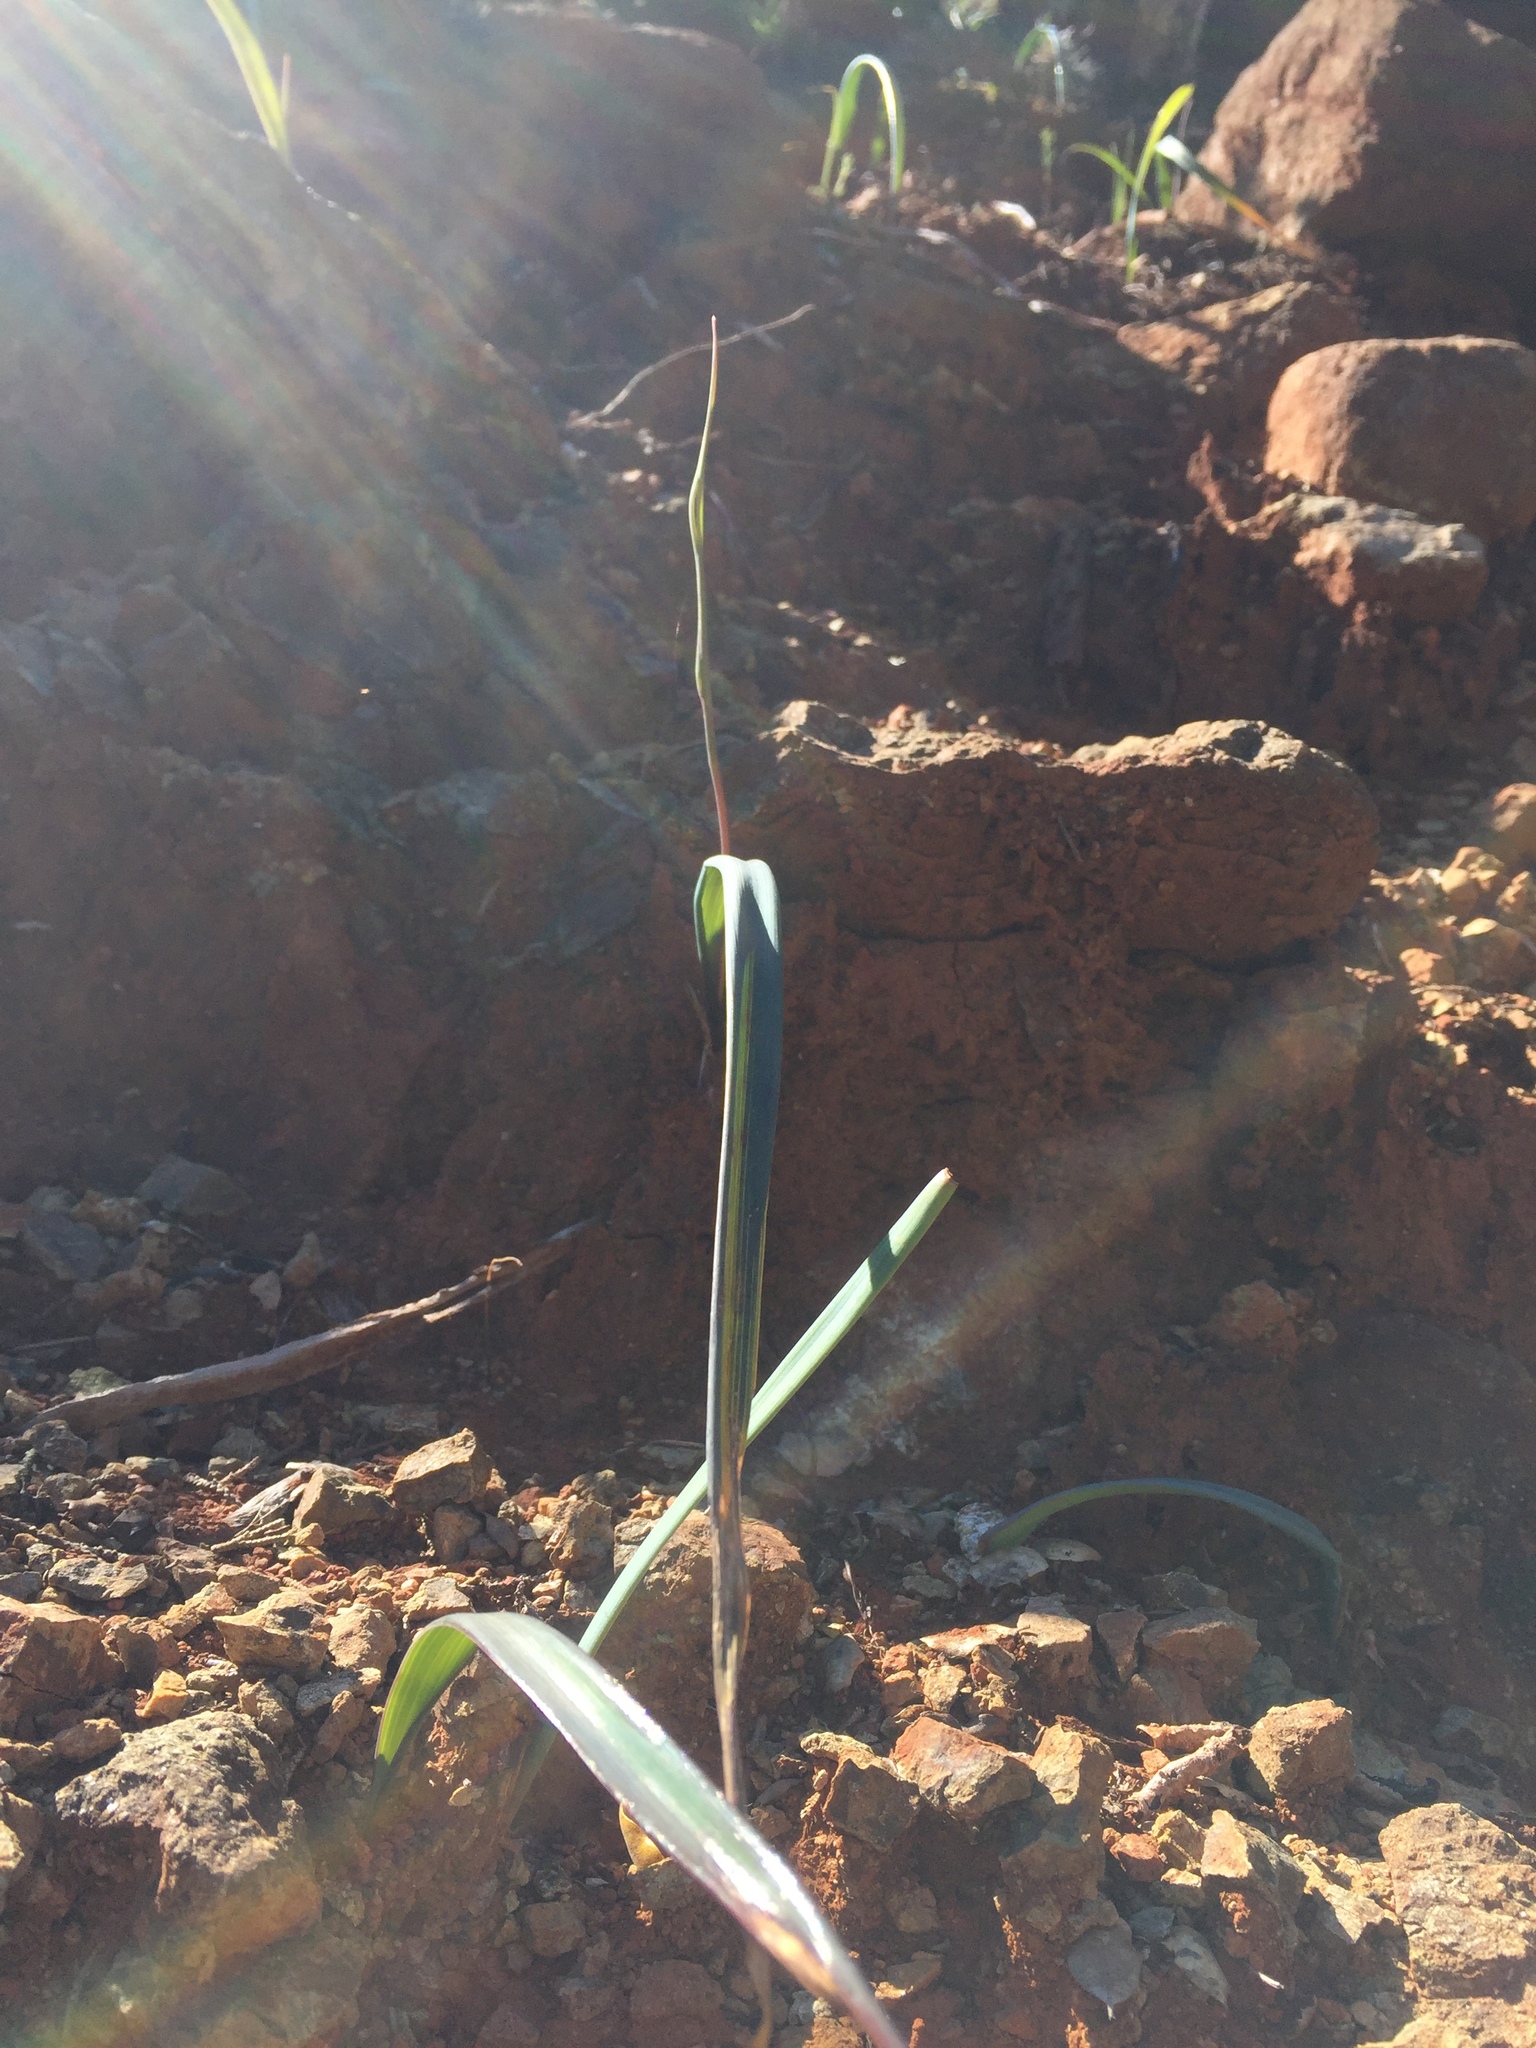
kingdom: Plantae
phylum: Tracheophyta
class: Liliopsida
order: Liliales
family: Liliaceae
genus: Calochortus
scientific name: Calochortus raichei
